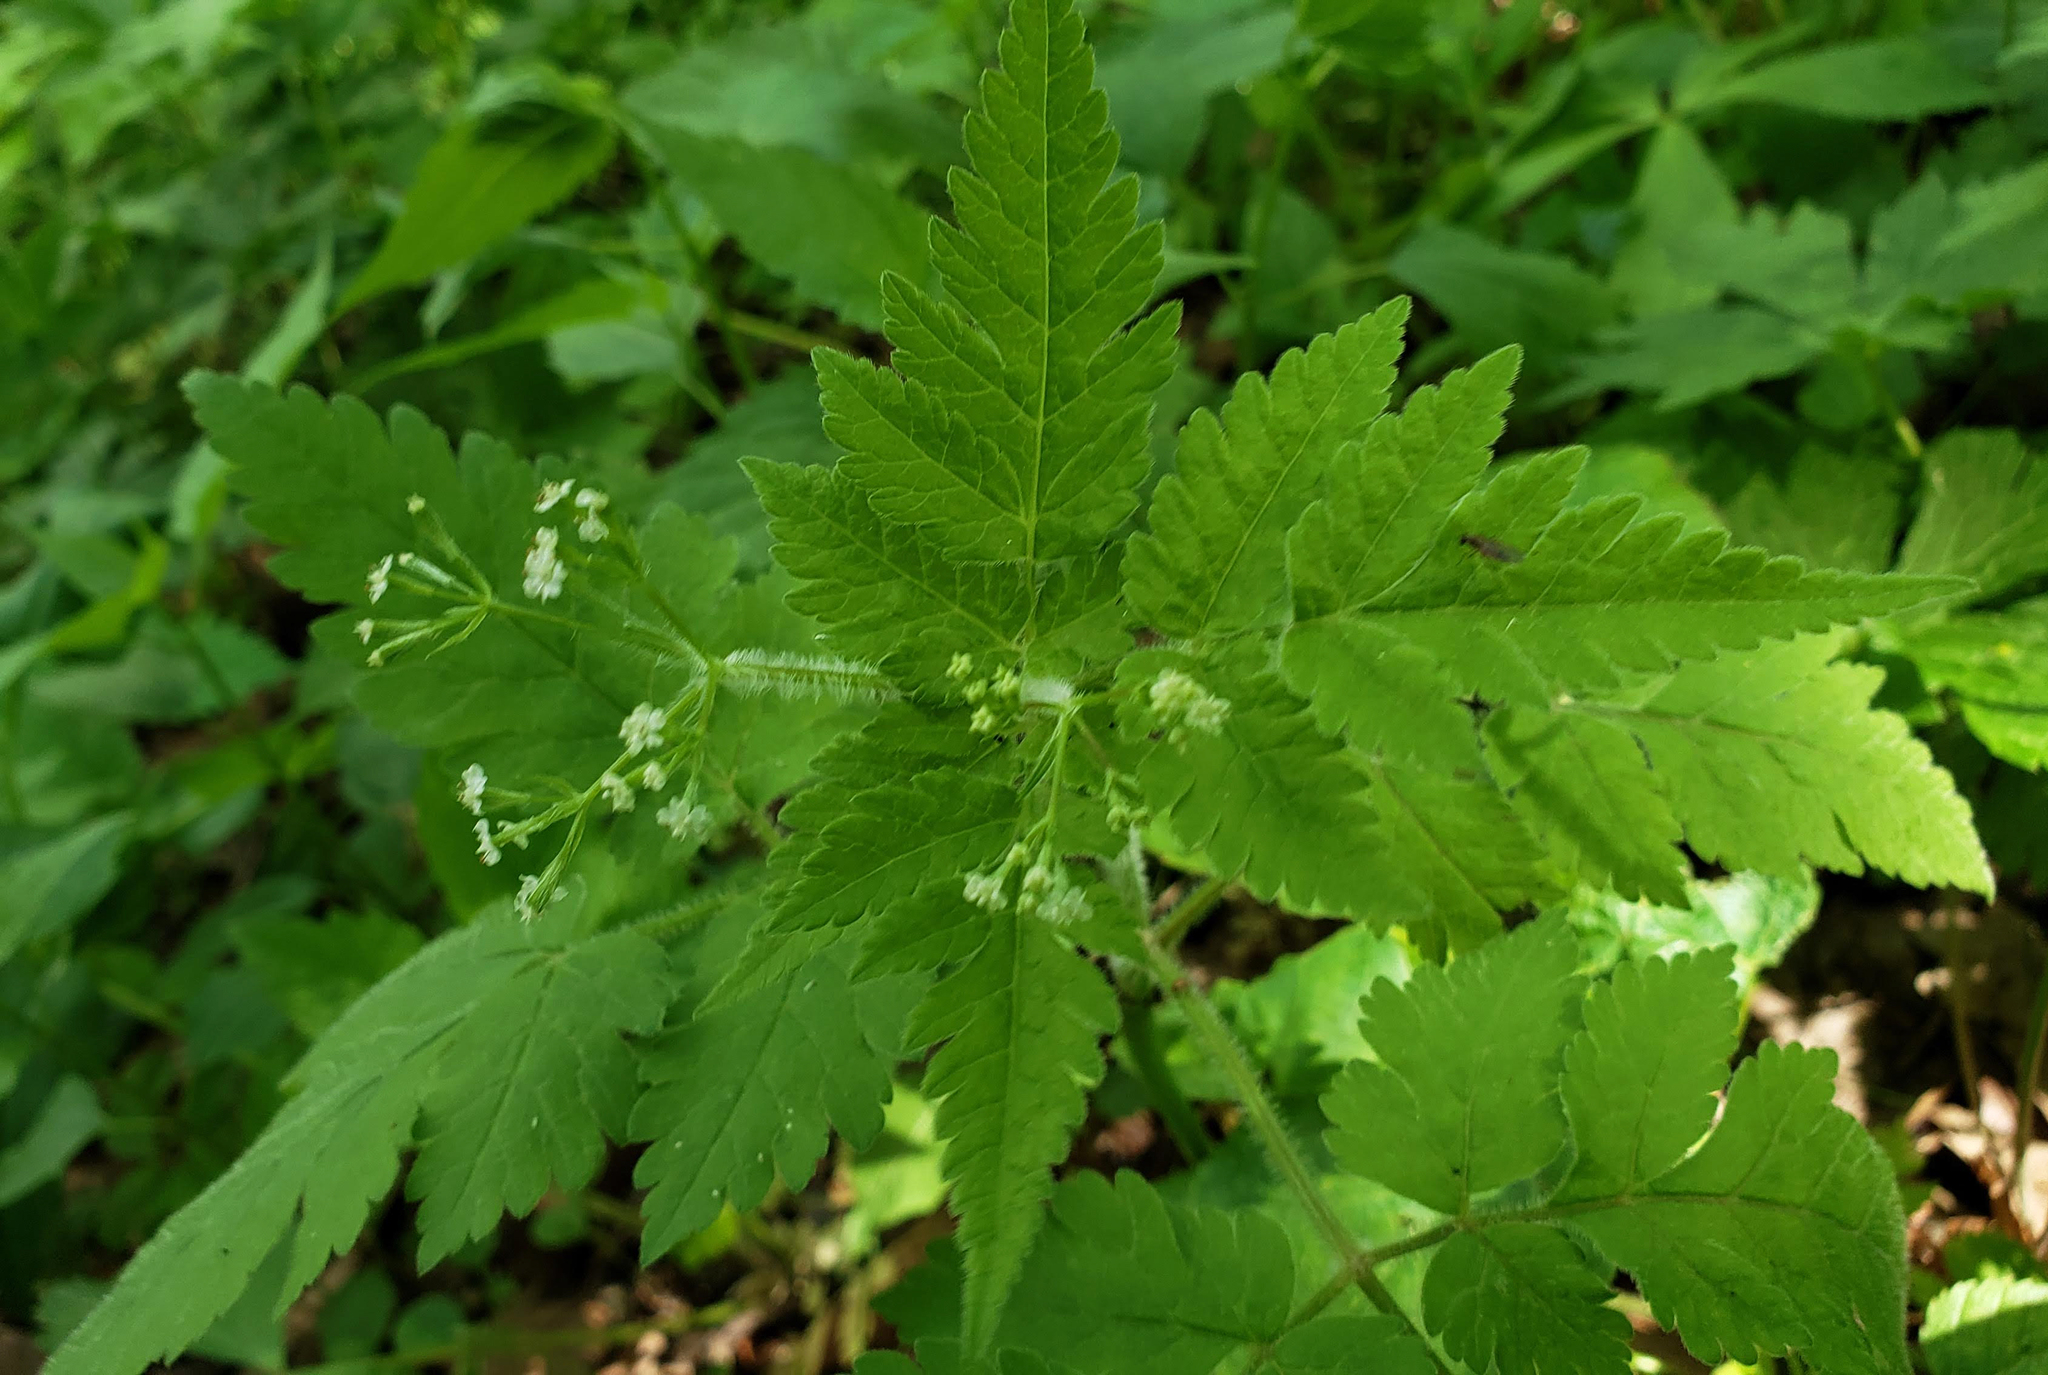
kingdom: Plantae
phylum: Tracheophyta
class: Magnoliopsida
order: Apiales
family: Apiaceae
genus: Osmorhiza
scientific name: Osmorhiza claytonii
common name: Hairy sweet cicely
